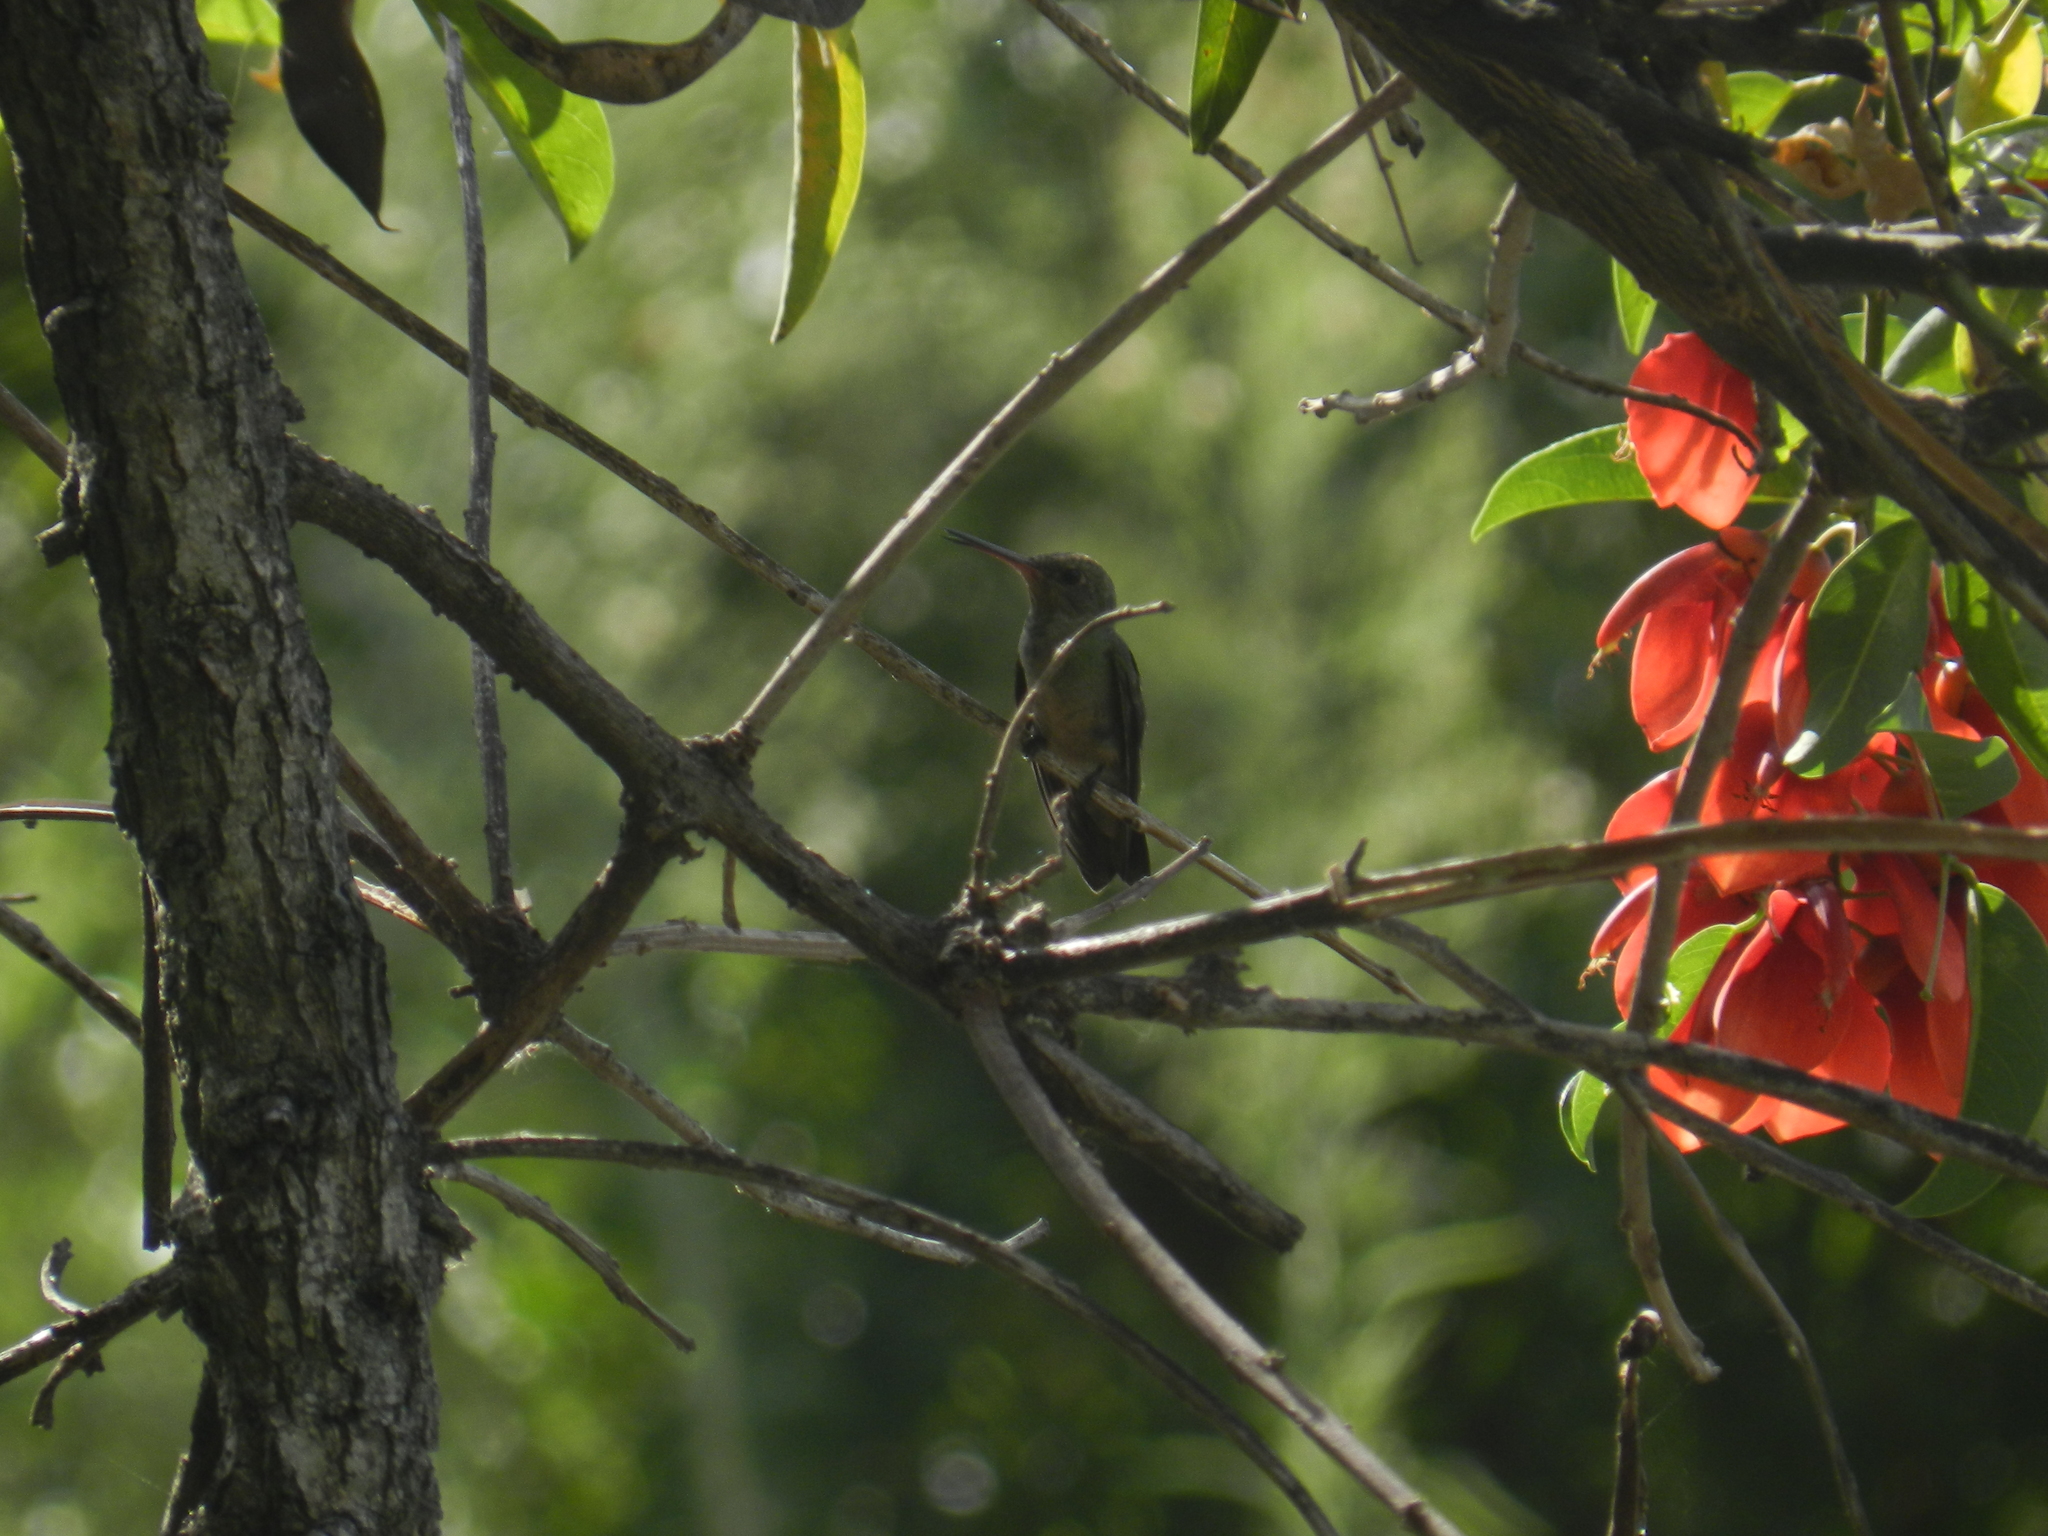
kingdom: Animalia
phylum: Chordata
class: Aves
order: Apodiformes
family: Trochilidae
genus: Hylocharis
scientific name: Hylocharis chrysura
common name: Gilded sapphire
